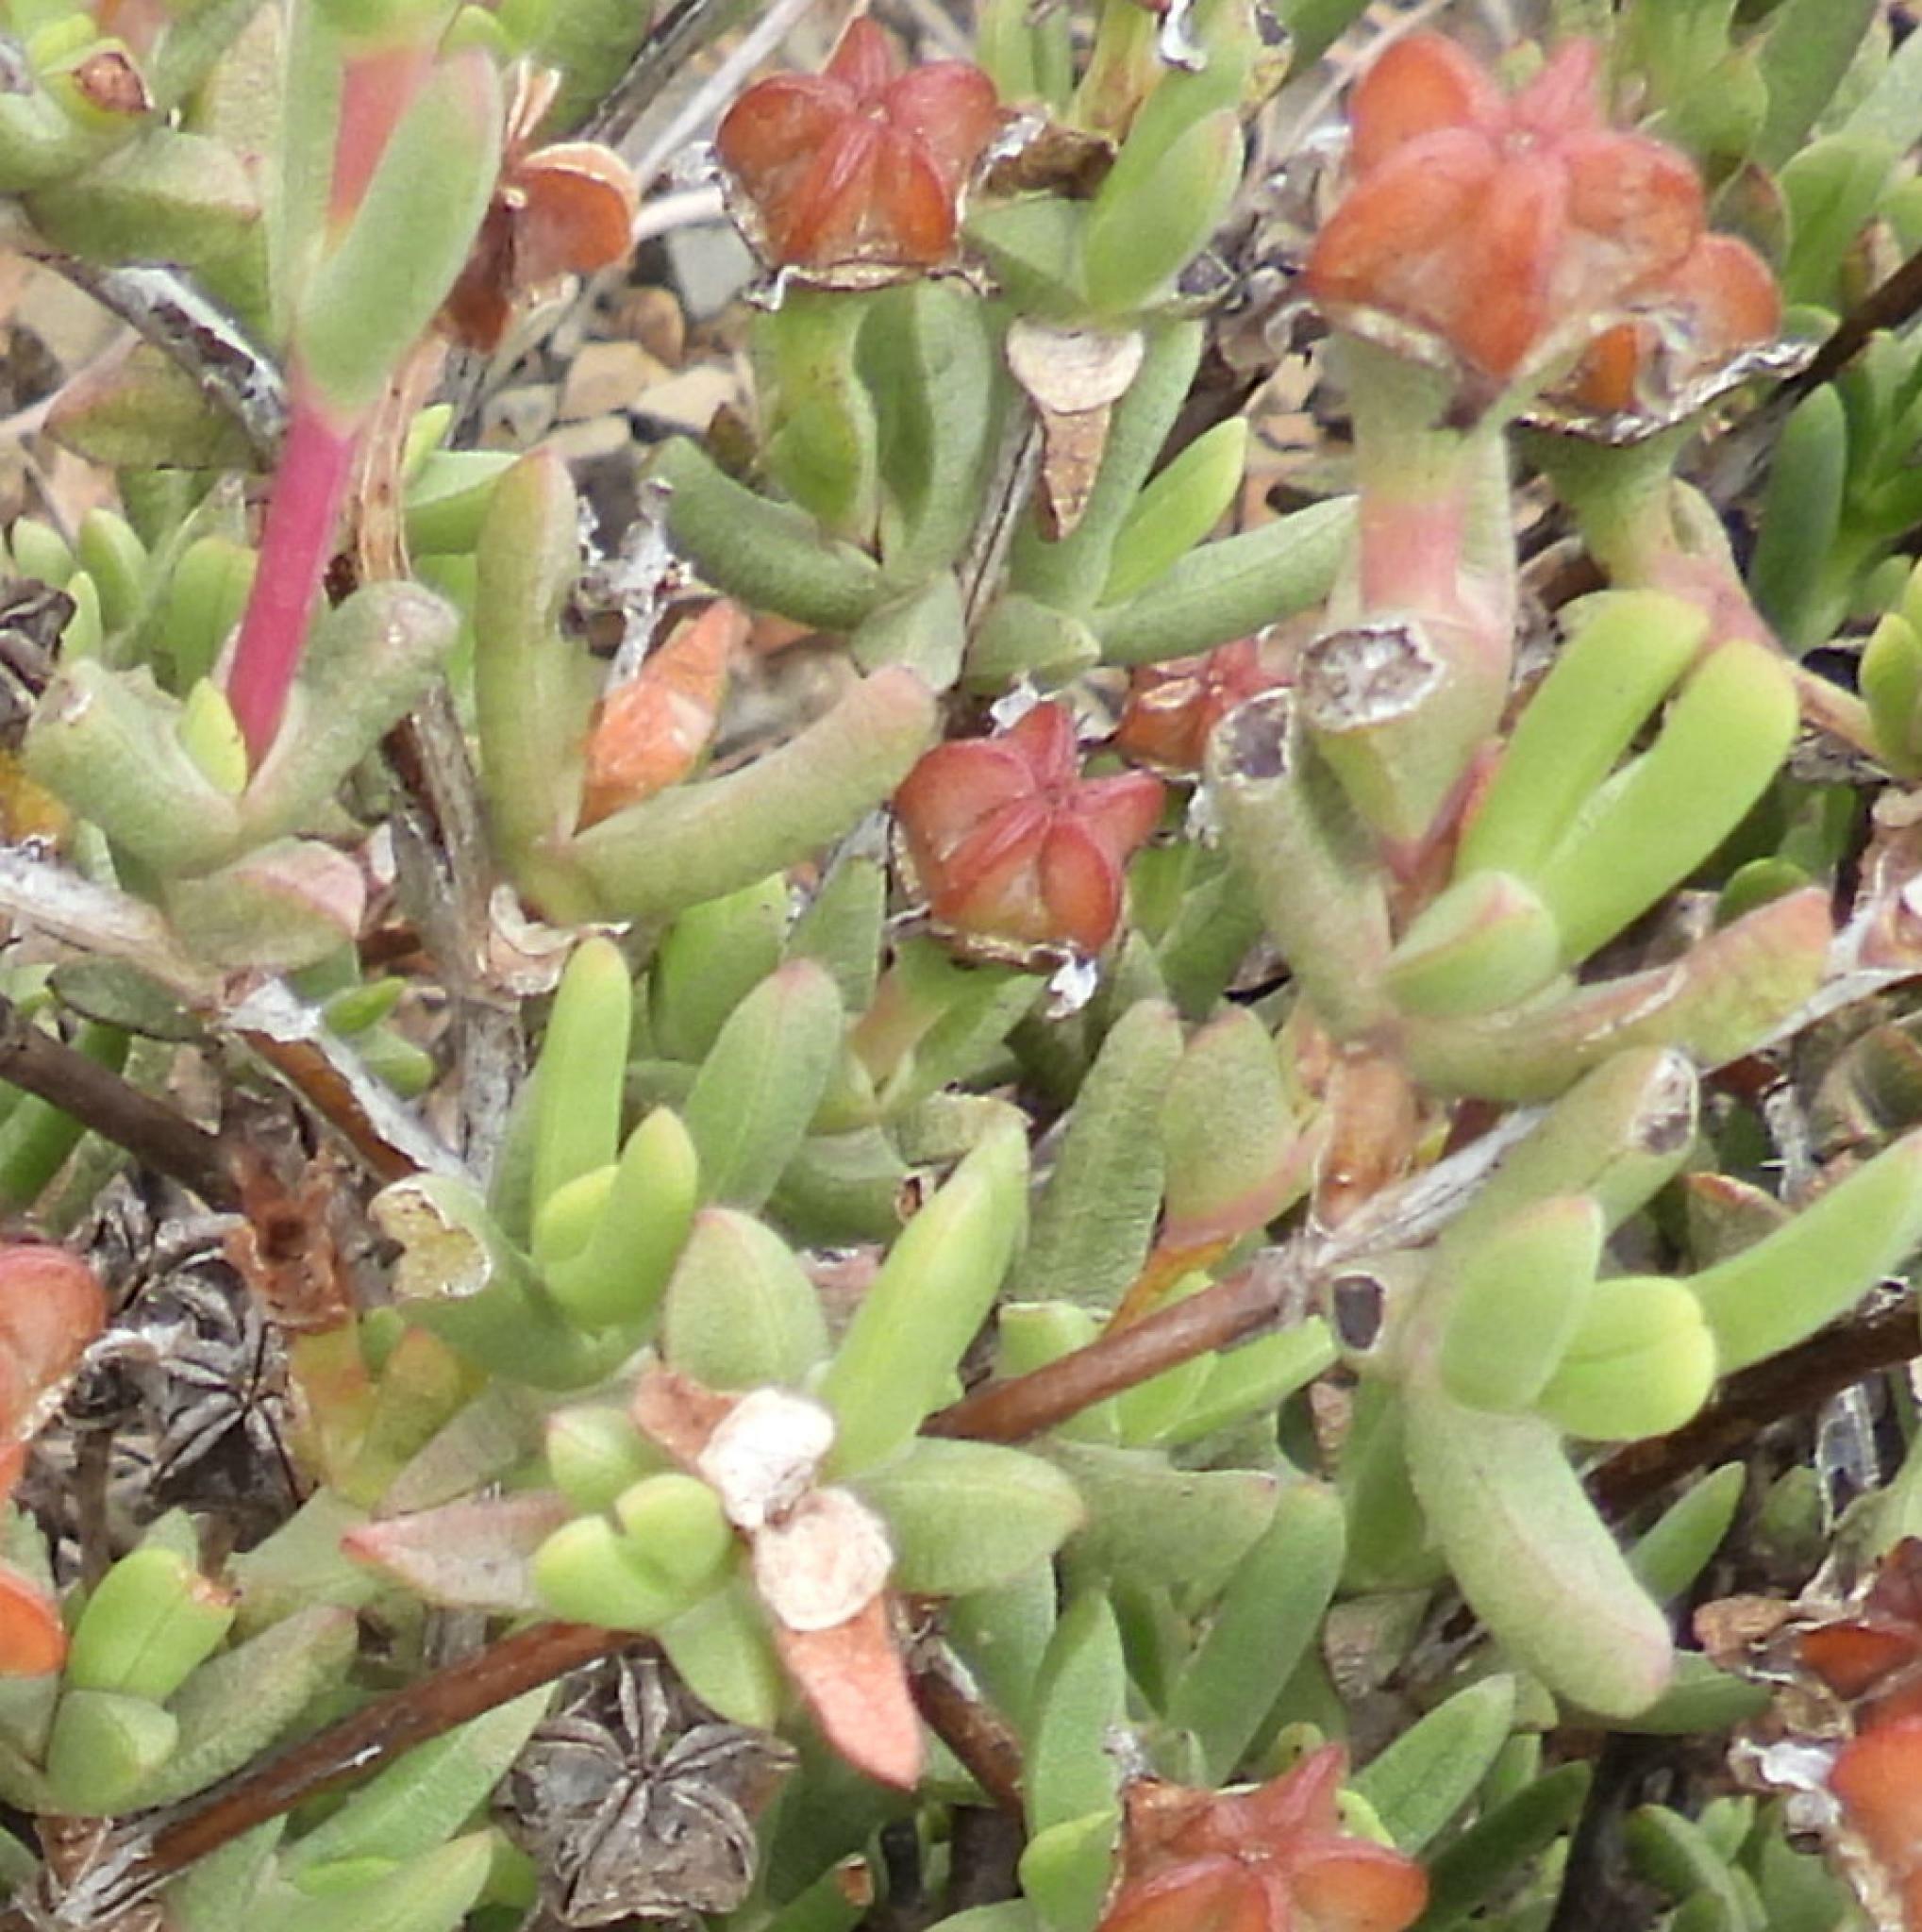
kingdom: Plantae
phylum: Tracheophyta
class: Magnoliopsida
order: Caryophyllales
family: Aizoaceae
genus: Ruschia
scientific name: Ruschia truteri
